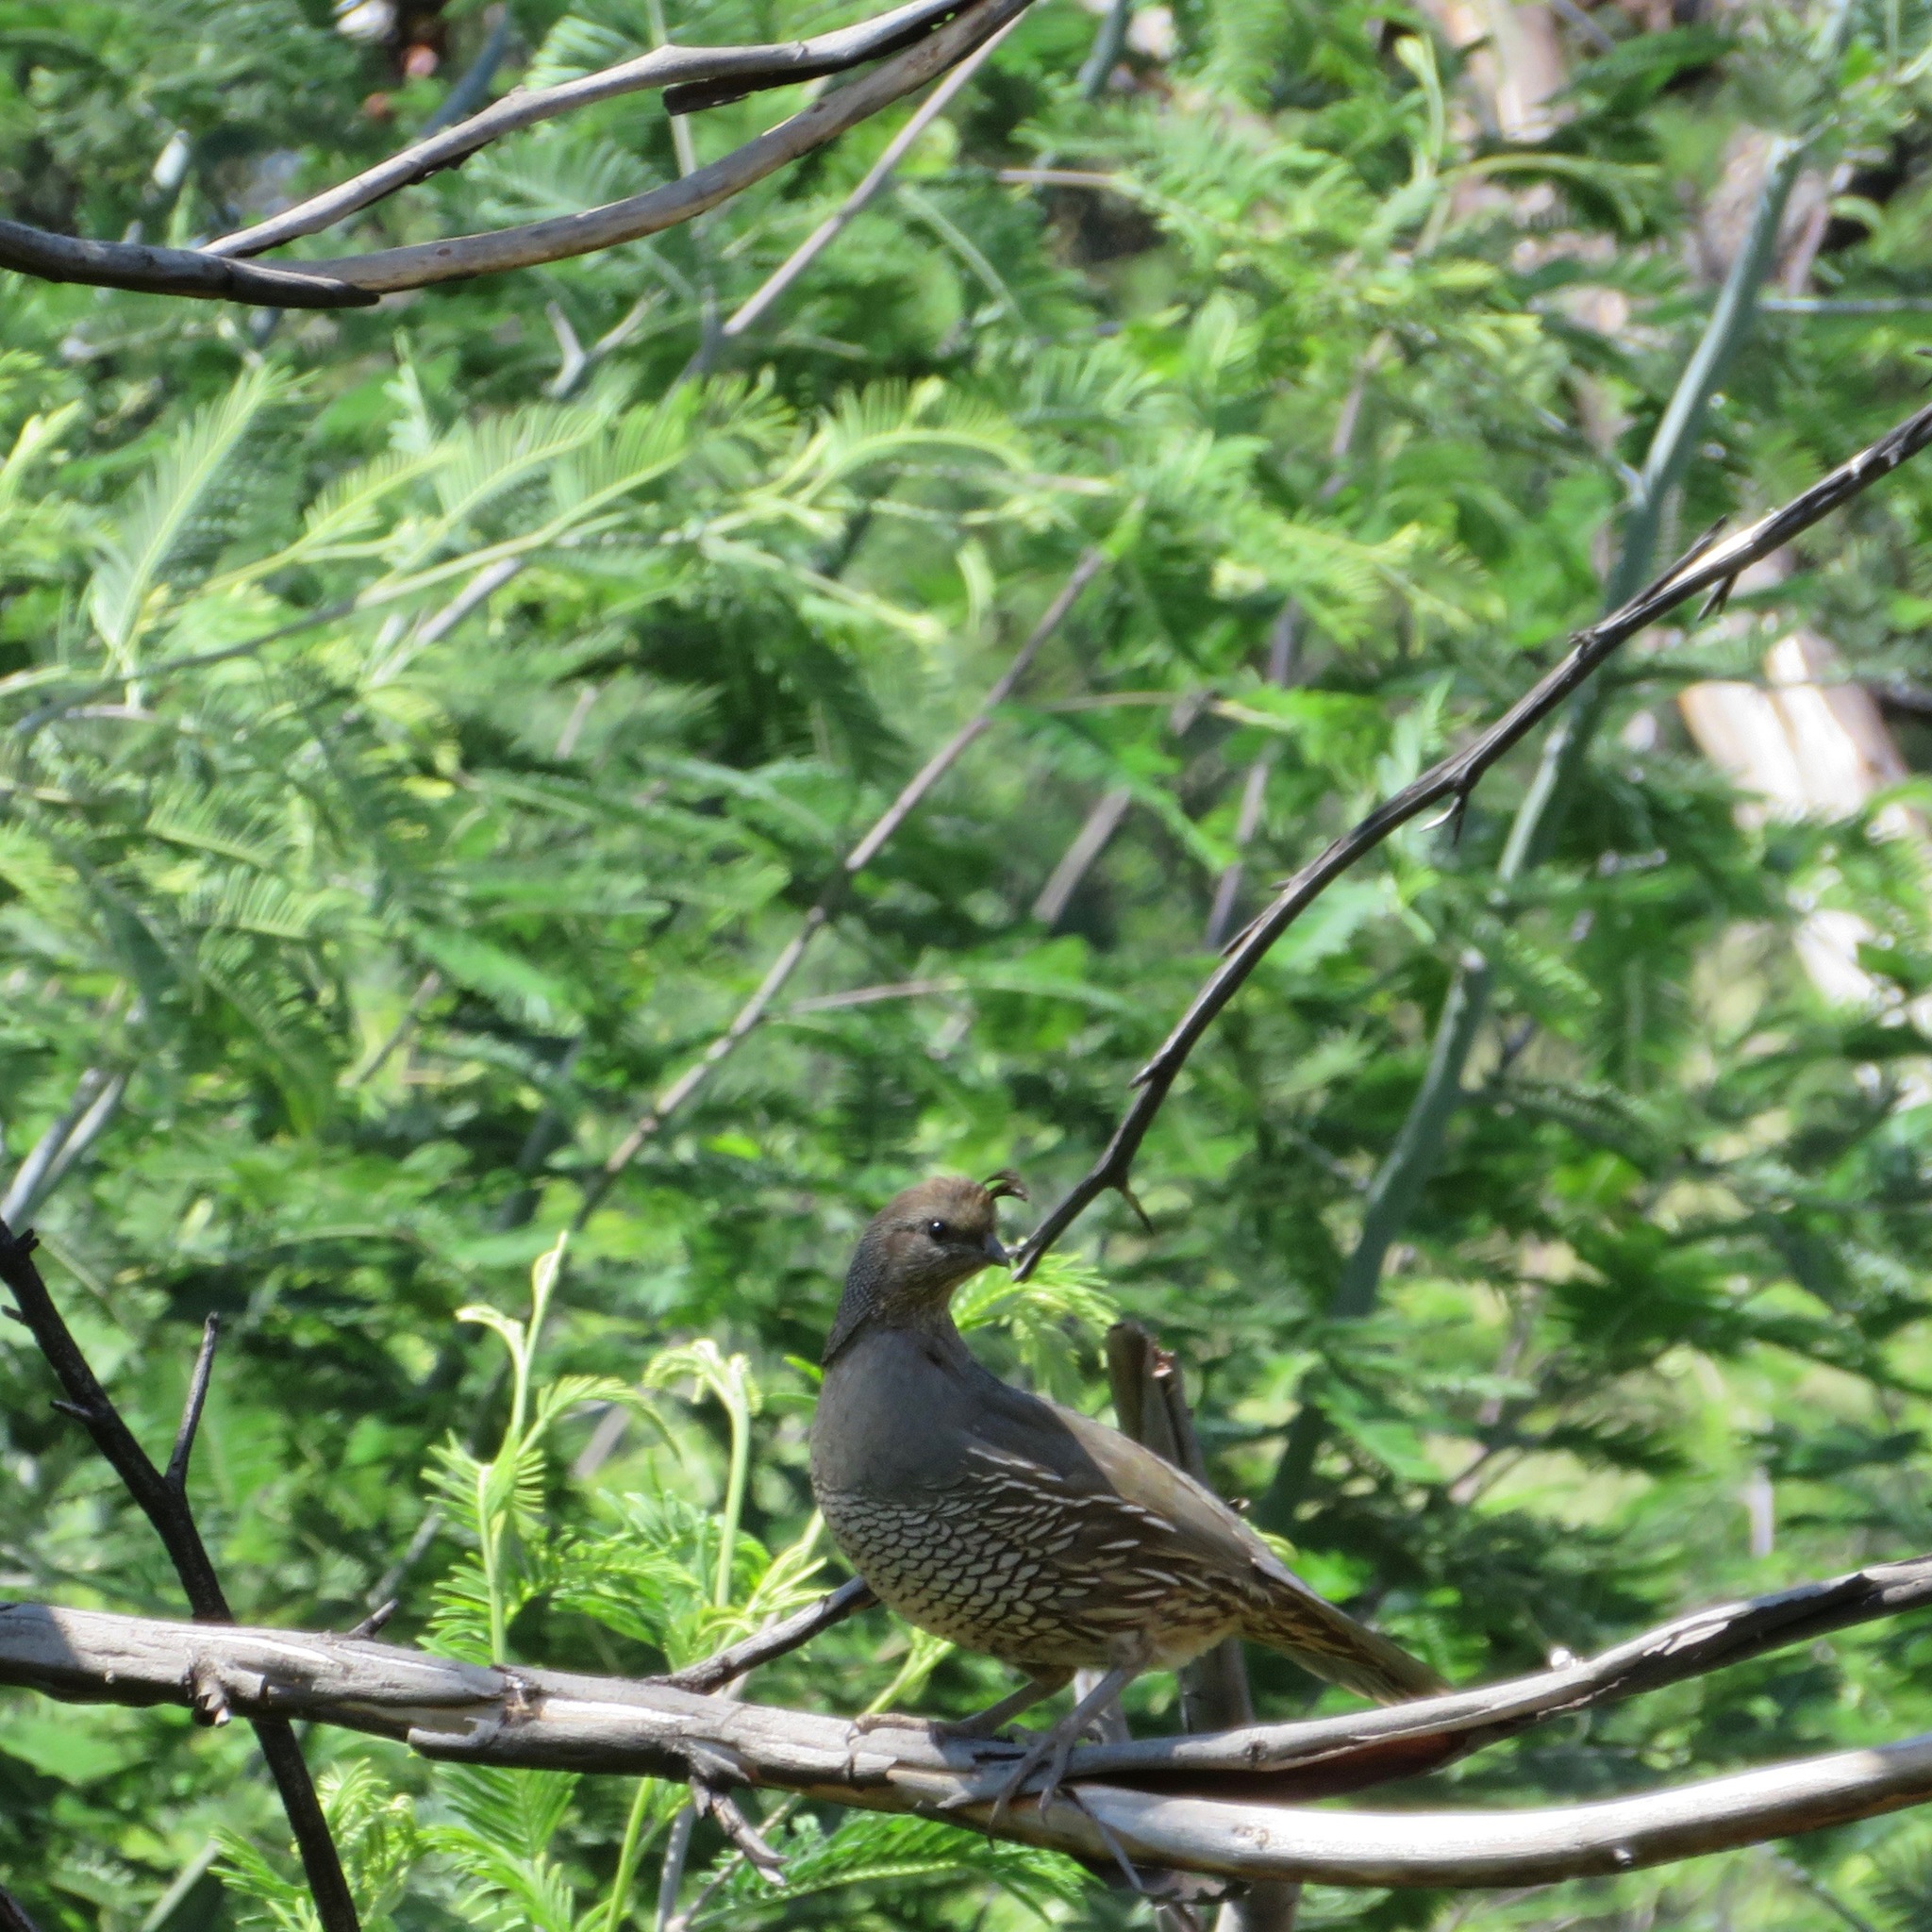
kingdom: Animalia
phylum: Chordata
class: Aves
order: Galliformes
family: Odontophoridae
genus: Callipepla
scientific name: Callipepla californica
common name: California quail
